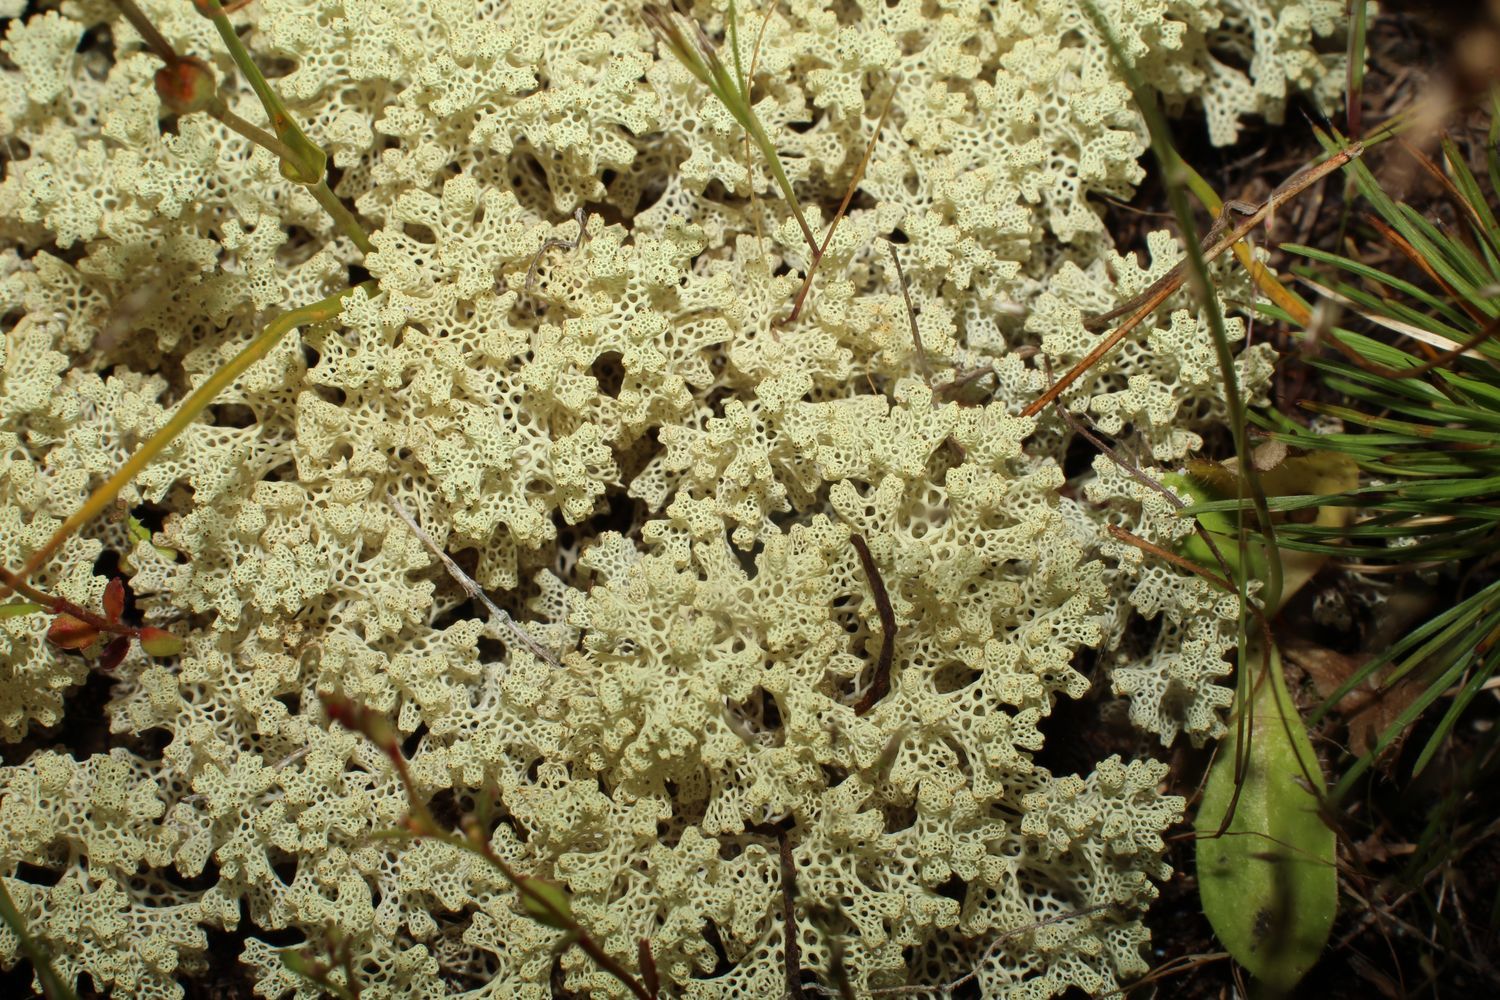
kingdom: Fungi
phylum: Ascomycota
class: Lecanoromycetes
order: Lecanorales
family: Cladoniaceae
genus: Pulchrocladia
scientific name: Pulchrocladia ferdinandii
